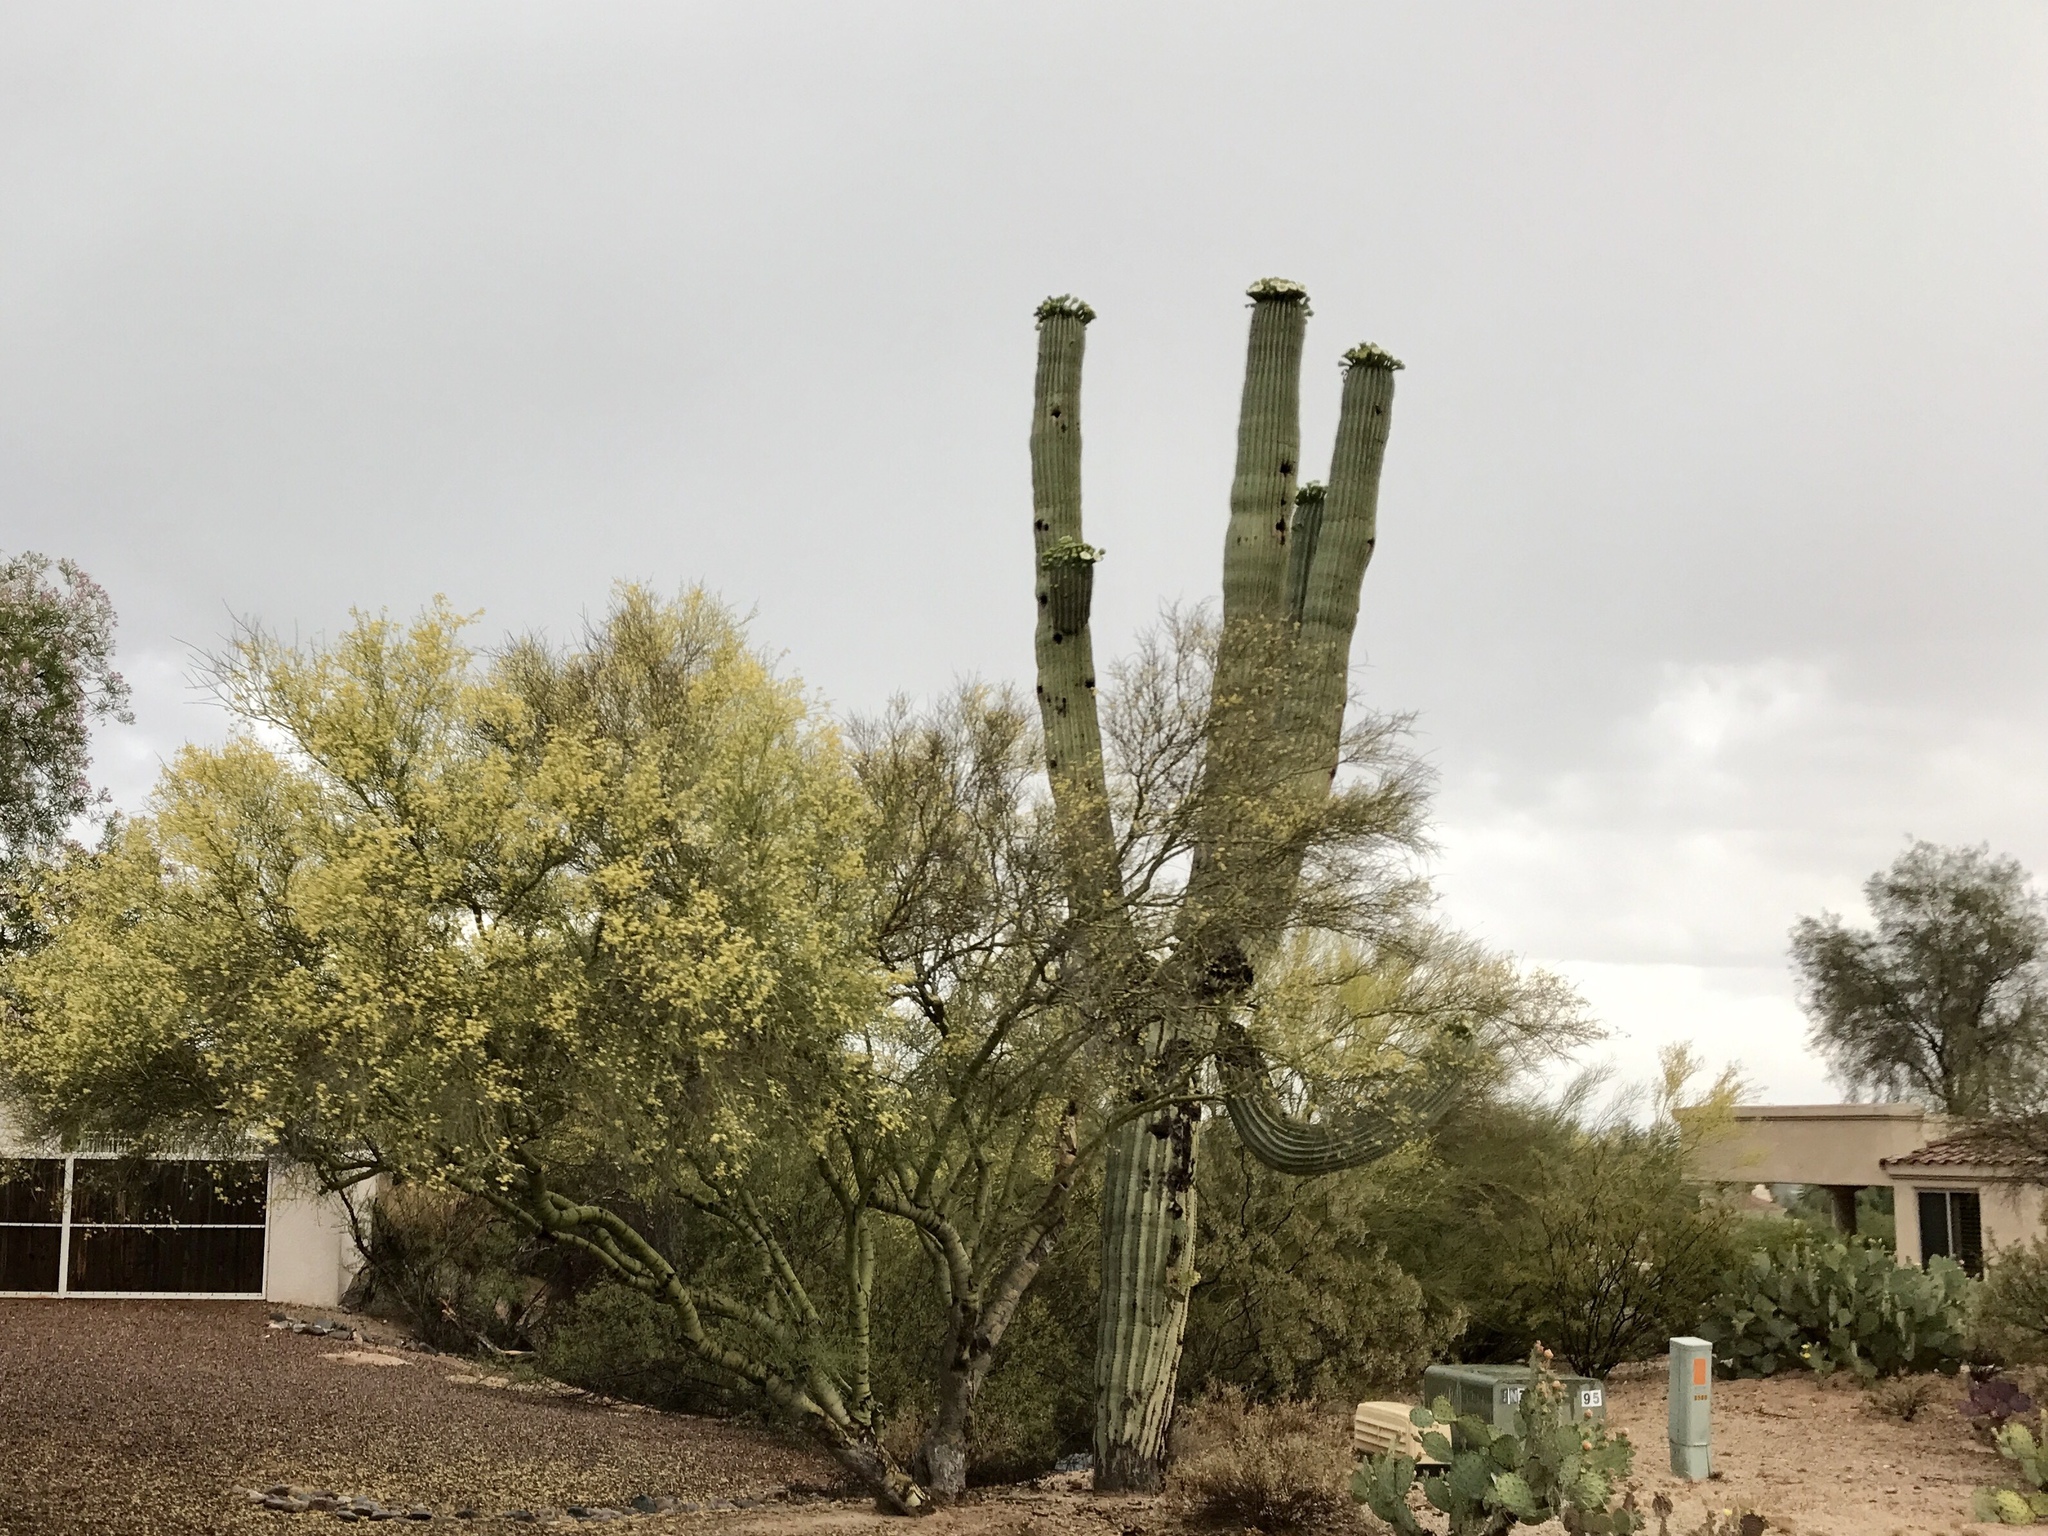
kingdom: Plantae
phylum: Tracheophyta
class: Magnoliopsida
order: Caryophyllales
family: Cactaceae
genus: Carnegiea
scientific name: Carnegiea gigantea
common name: Saguaro
